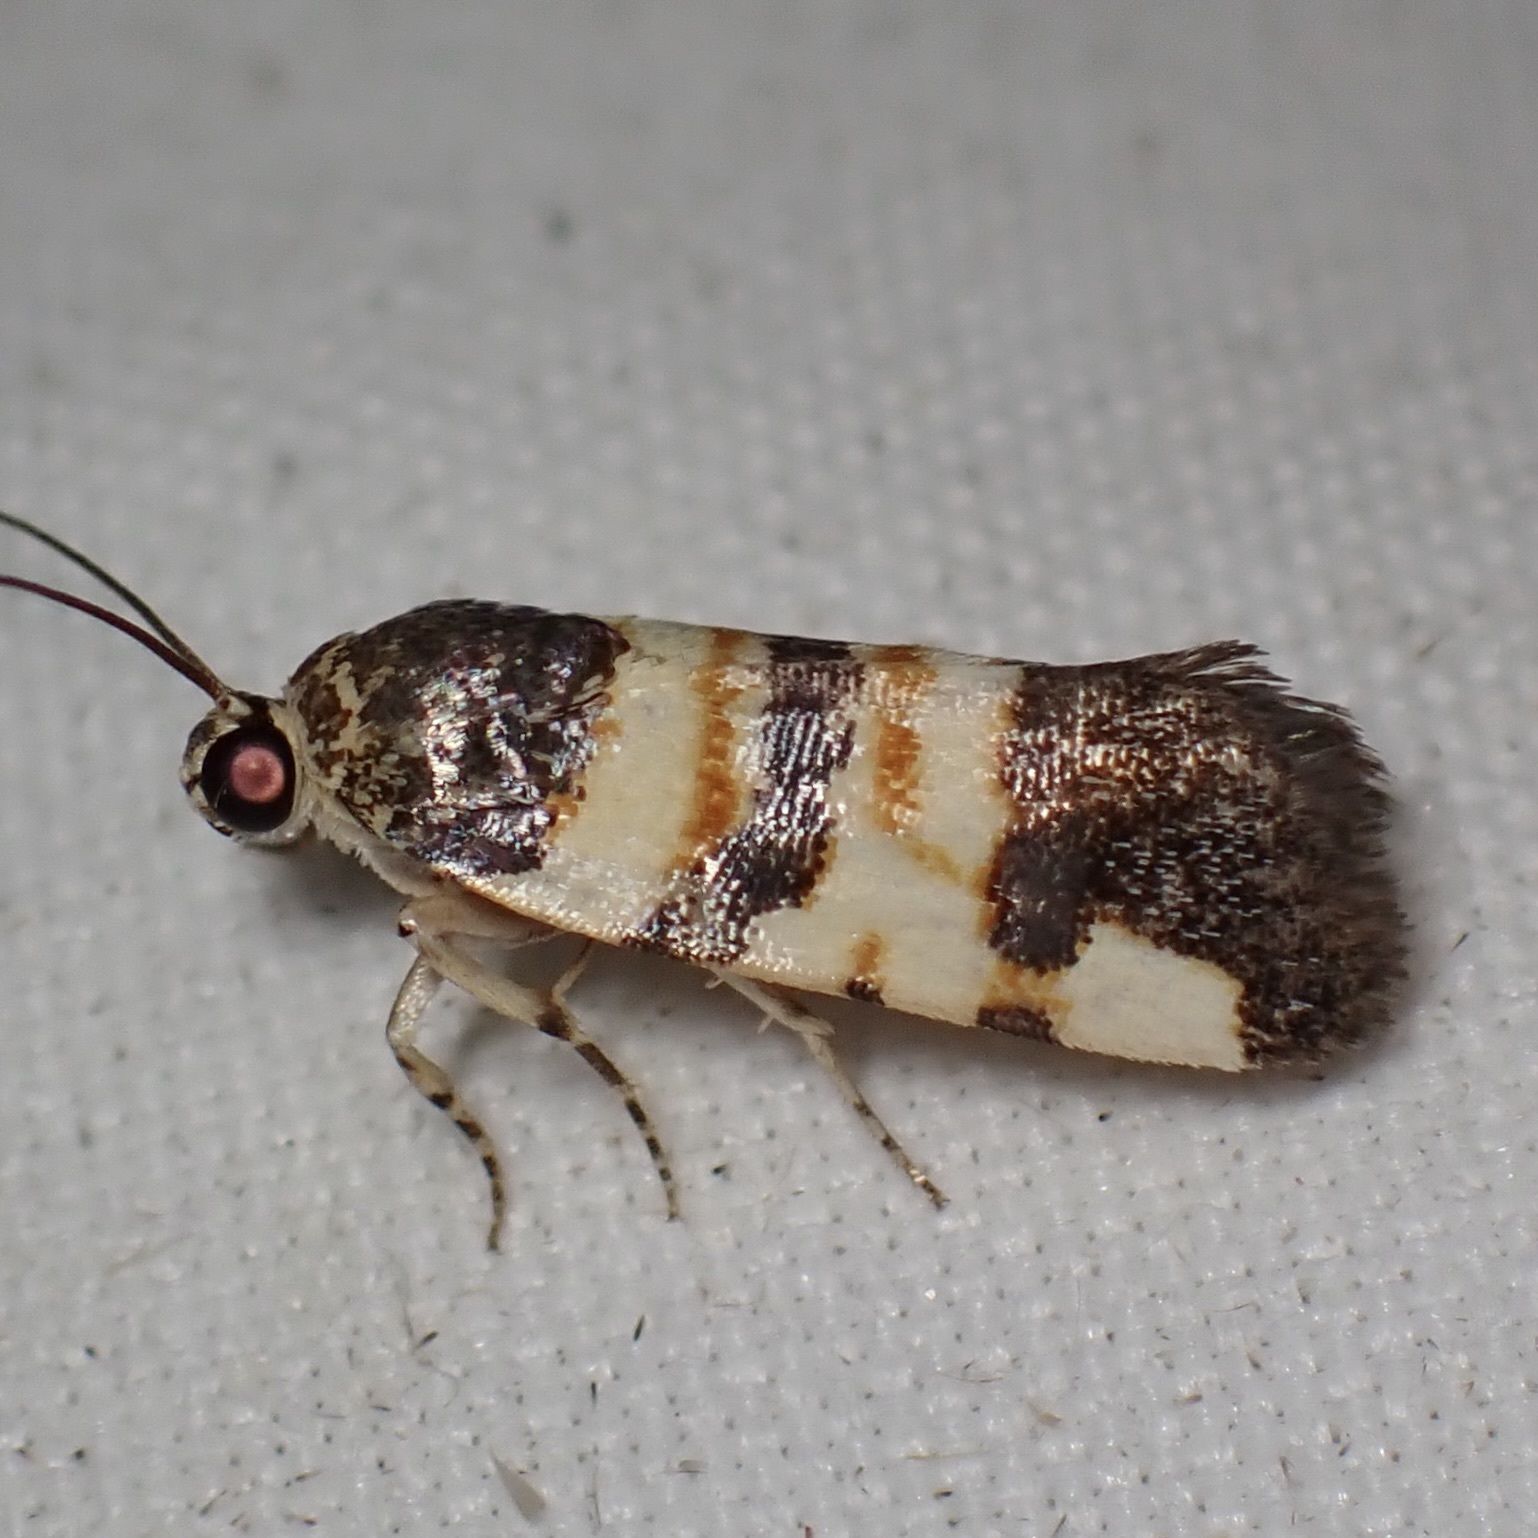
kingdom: Animalia
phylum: Arthropoda
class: Insecta
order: Lepidoptera
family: Noctuidae
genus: Spragueia
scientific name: Spragueia funeralis
